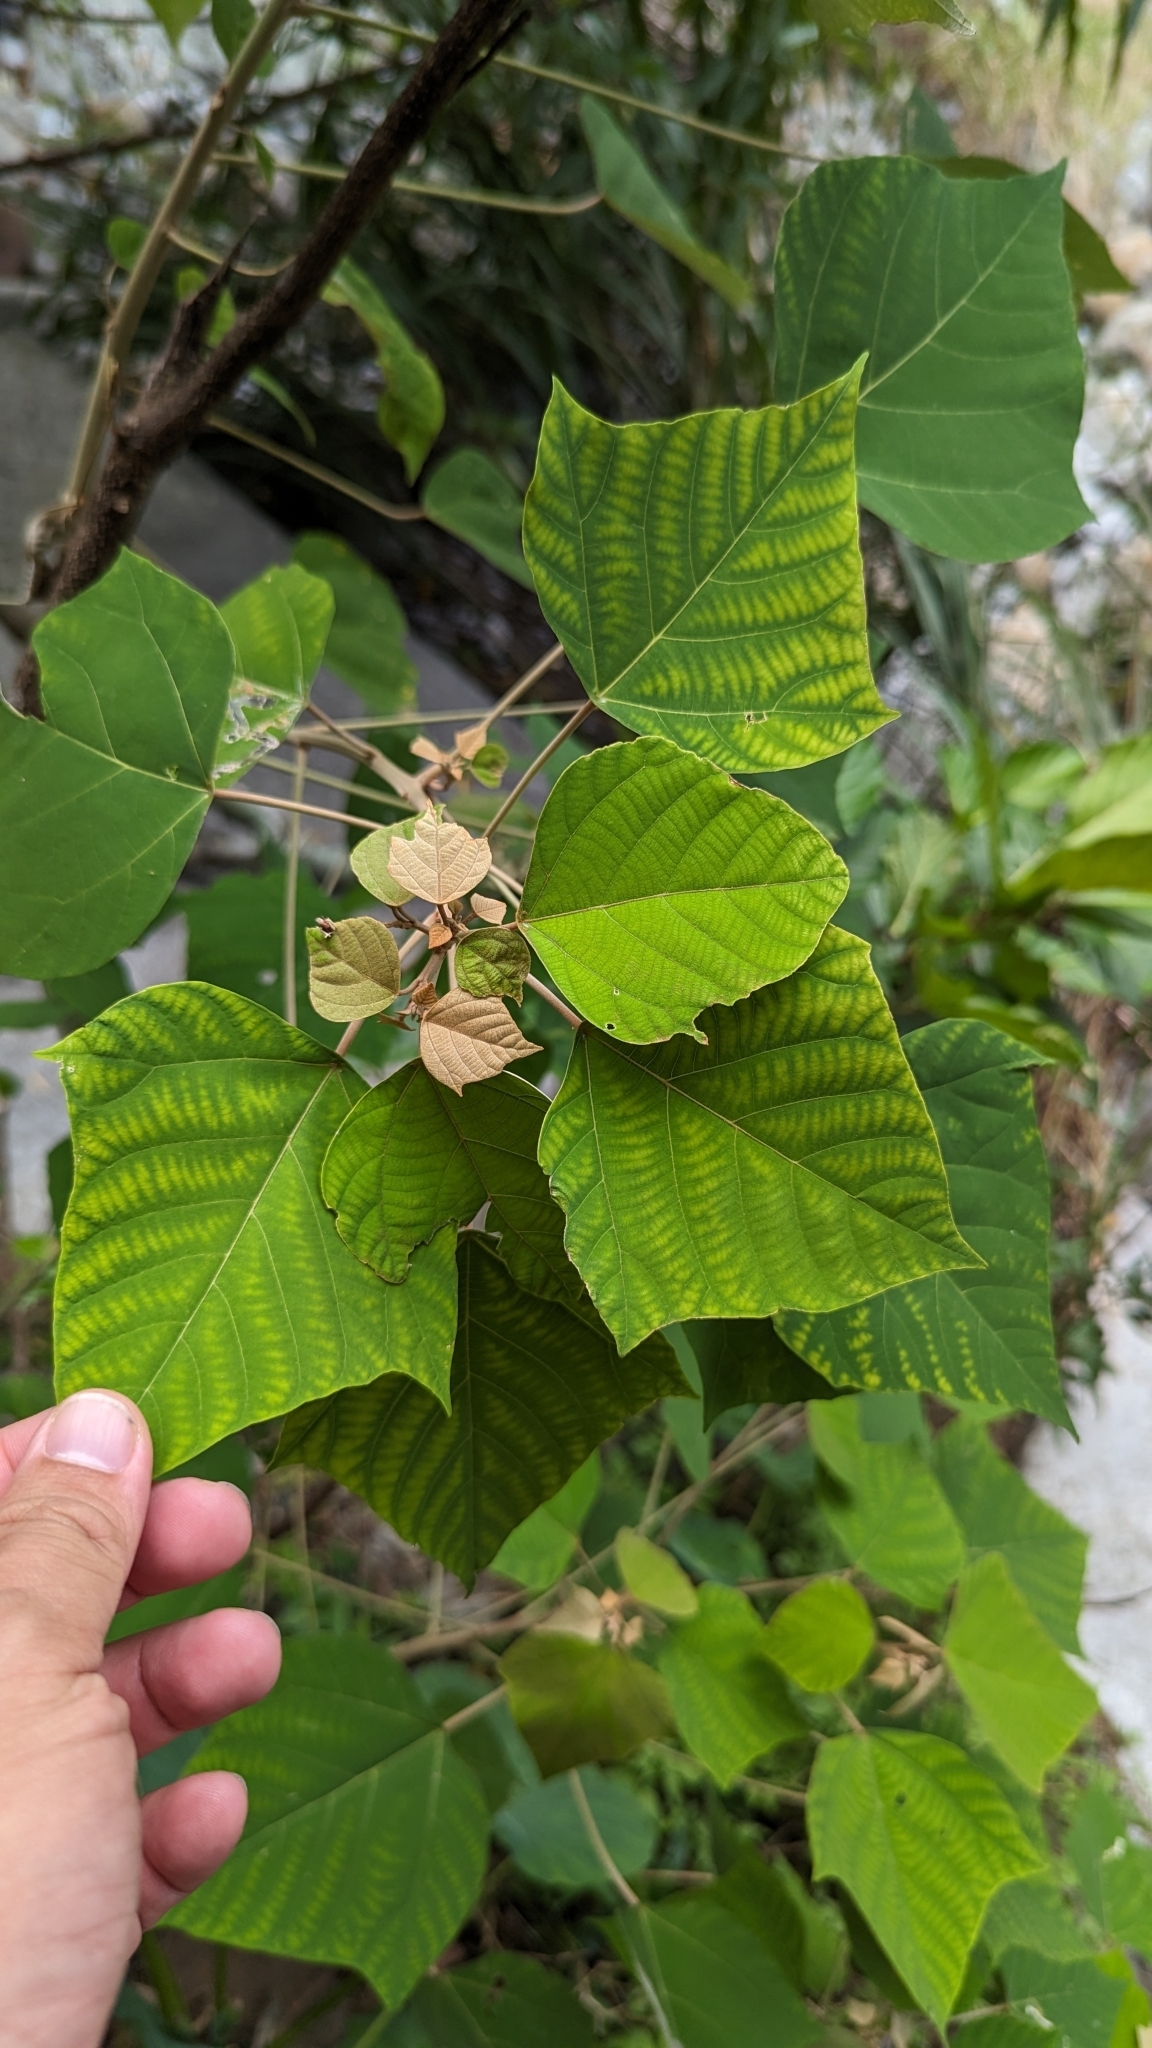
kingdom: Plantae
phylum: Tracheophyta
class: Magnoliopsida
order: Malpighiales
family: Euphorbiaceae
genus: Mallotus
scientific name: Mallotus paniculatus
